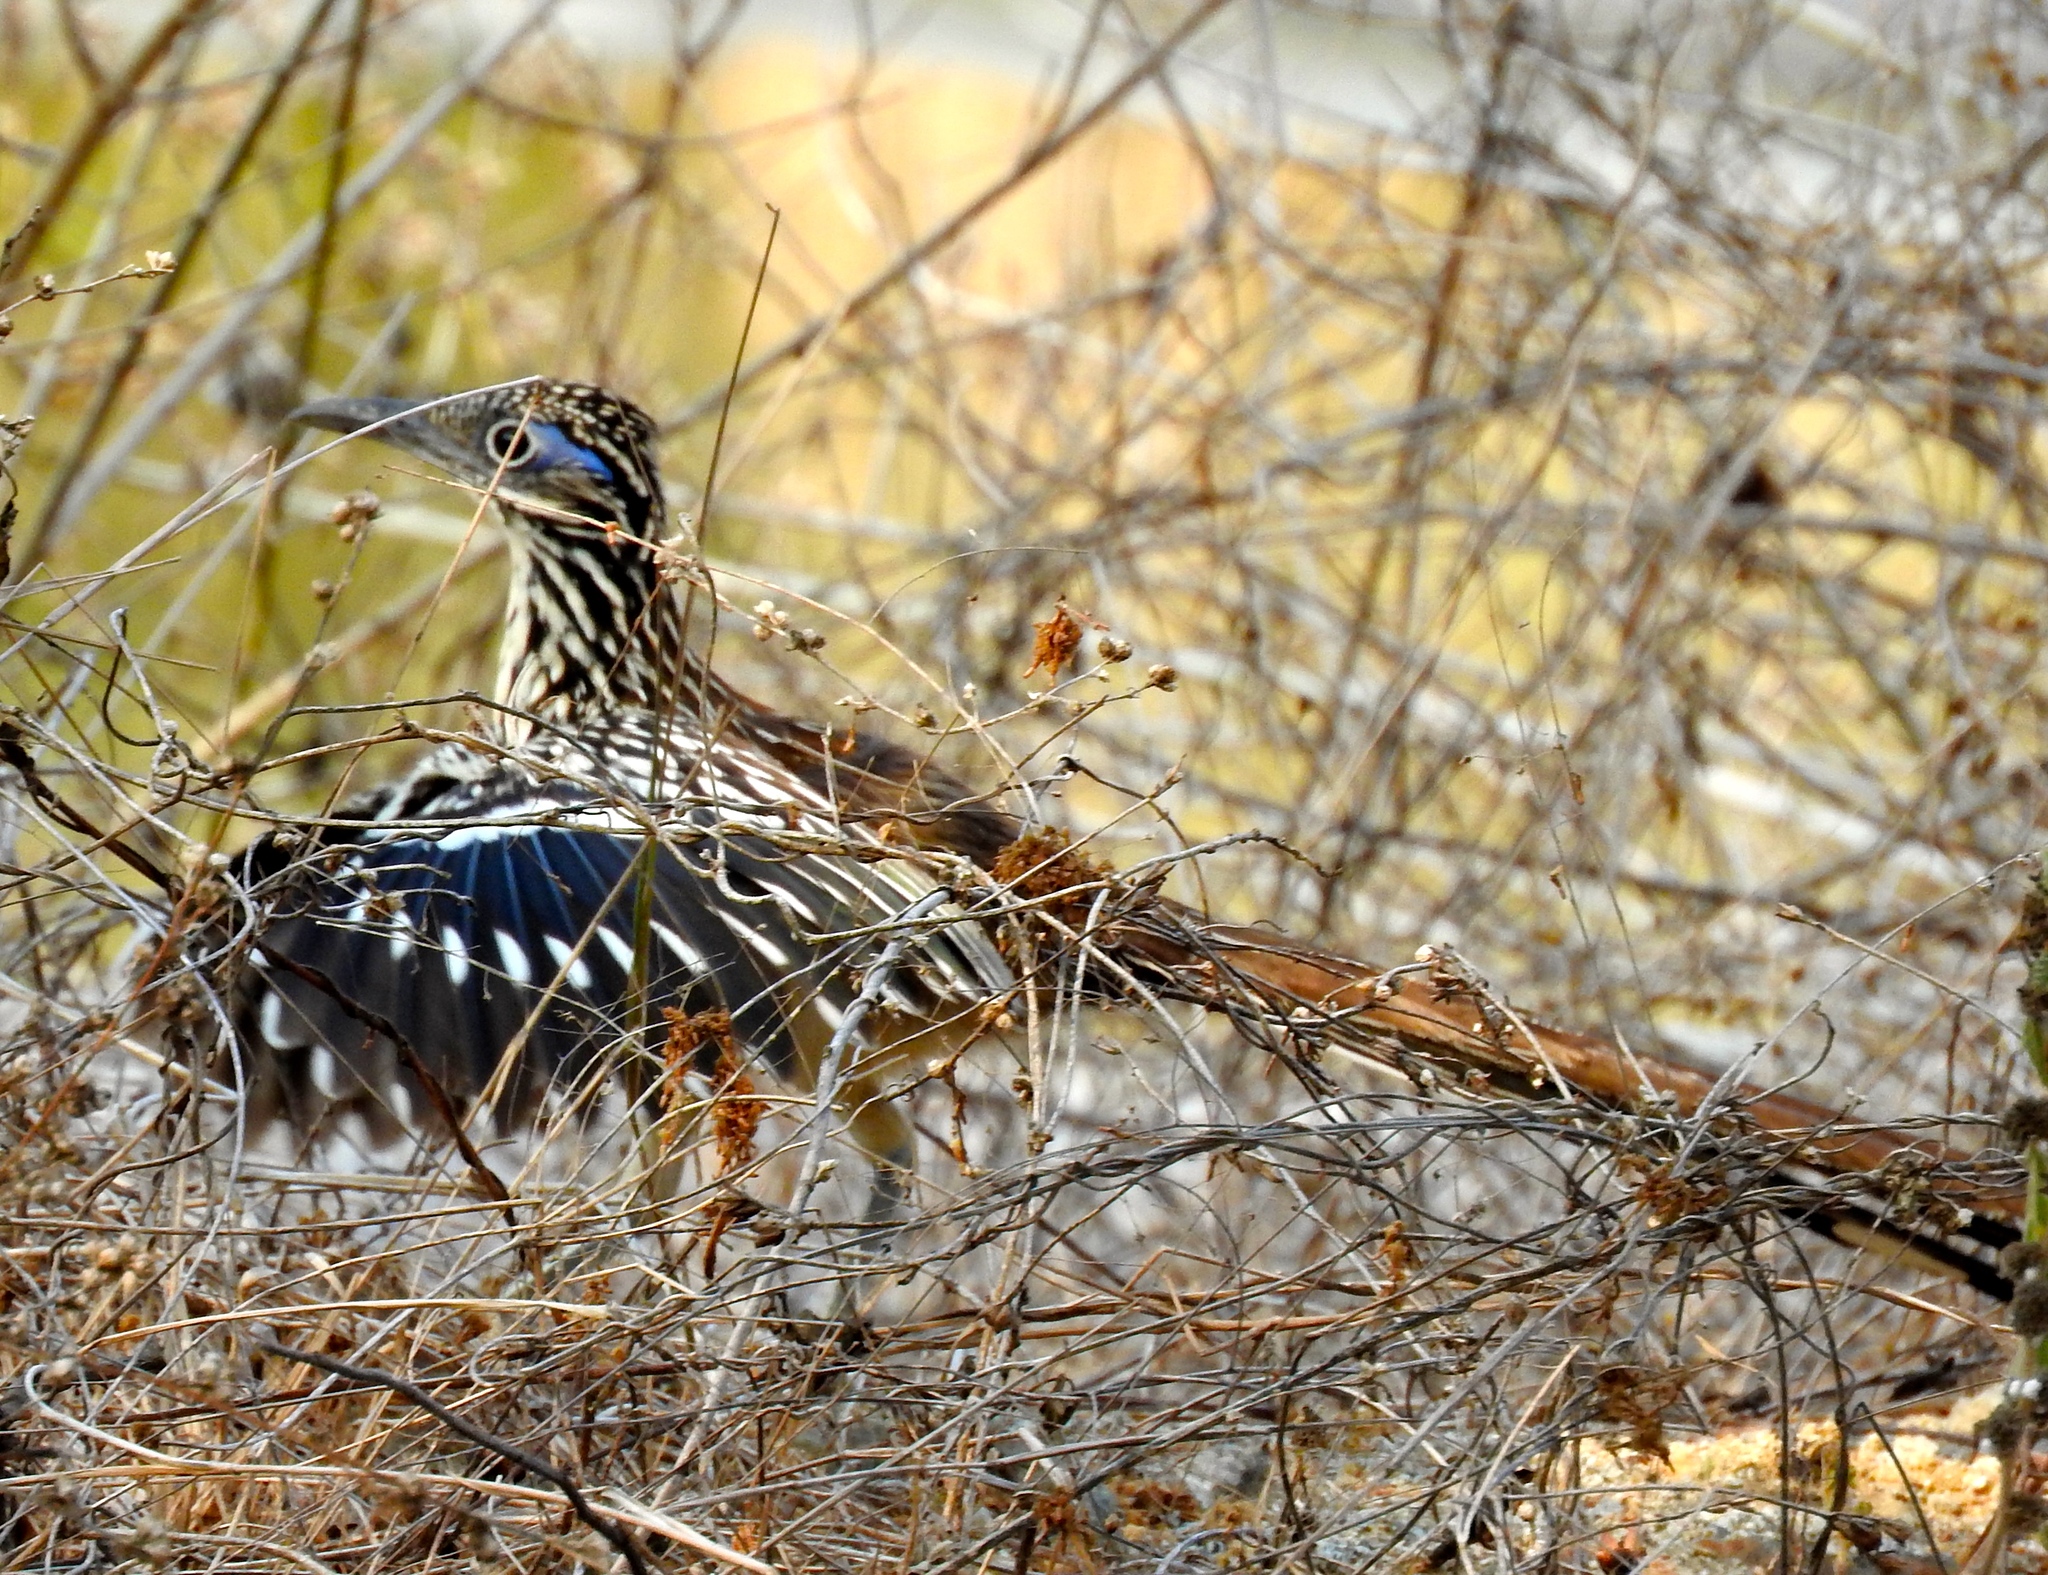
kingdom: Animalia
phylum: Chordata
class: Aves
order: Cuculiformes
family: Cuculidae
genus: Geococcyx
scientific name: Geococcyx velox
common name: Lesser roadrunner
